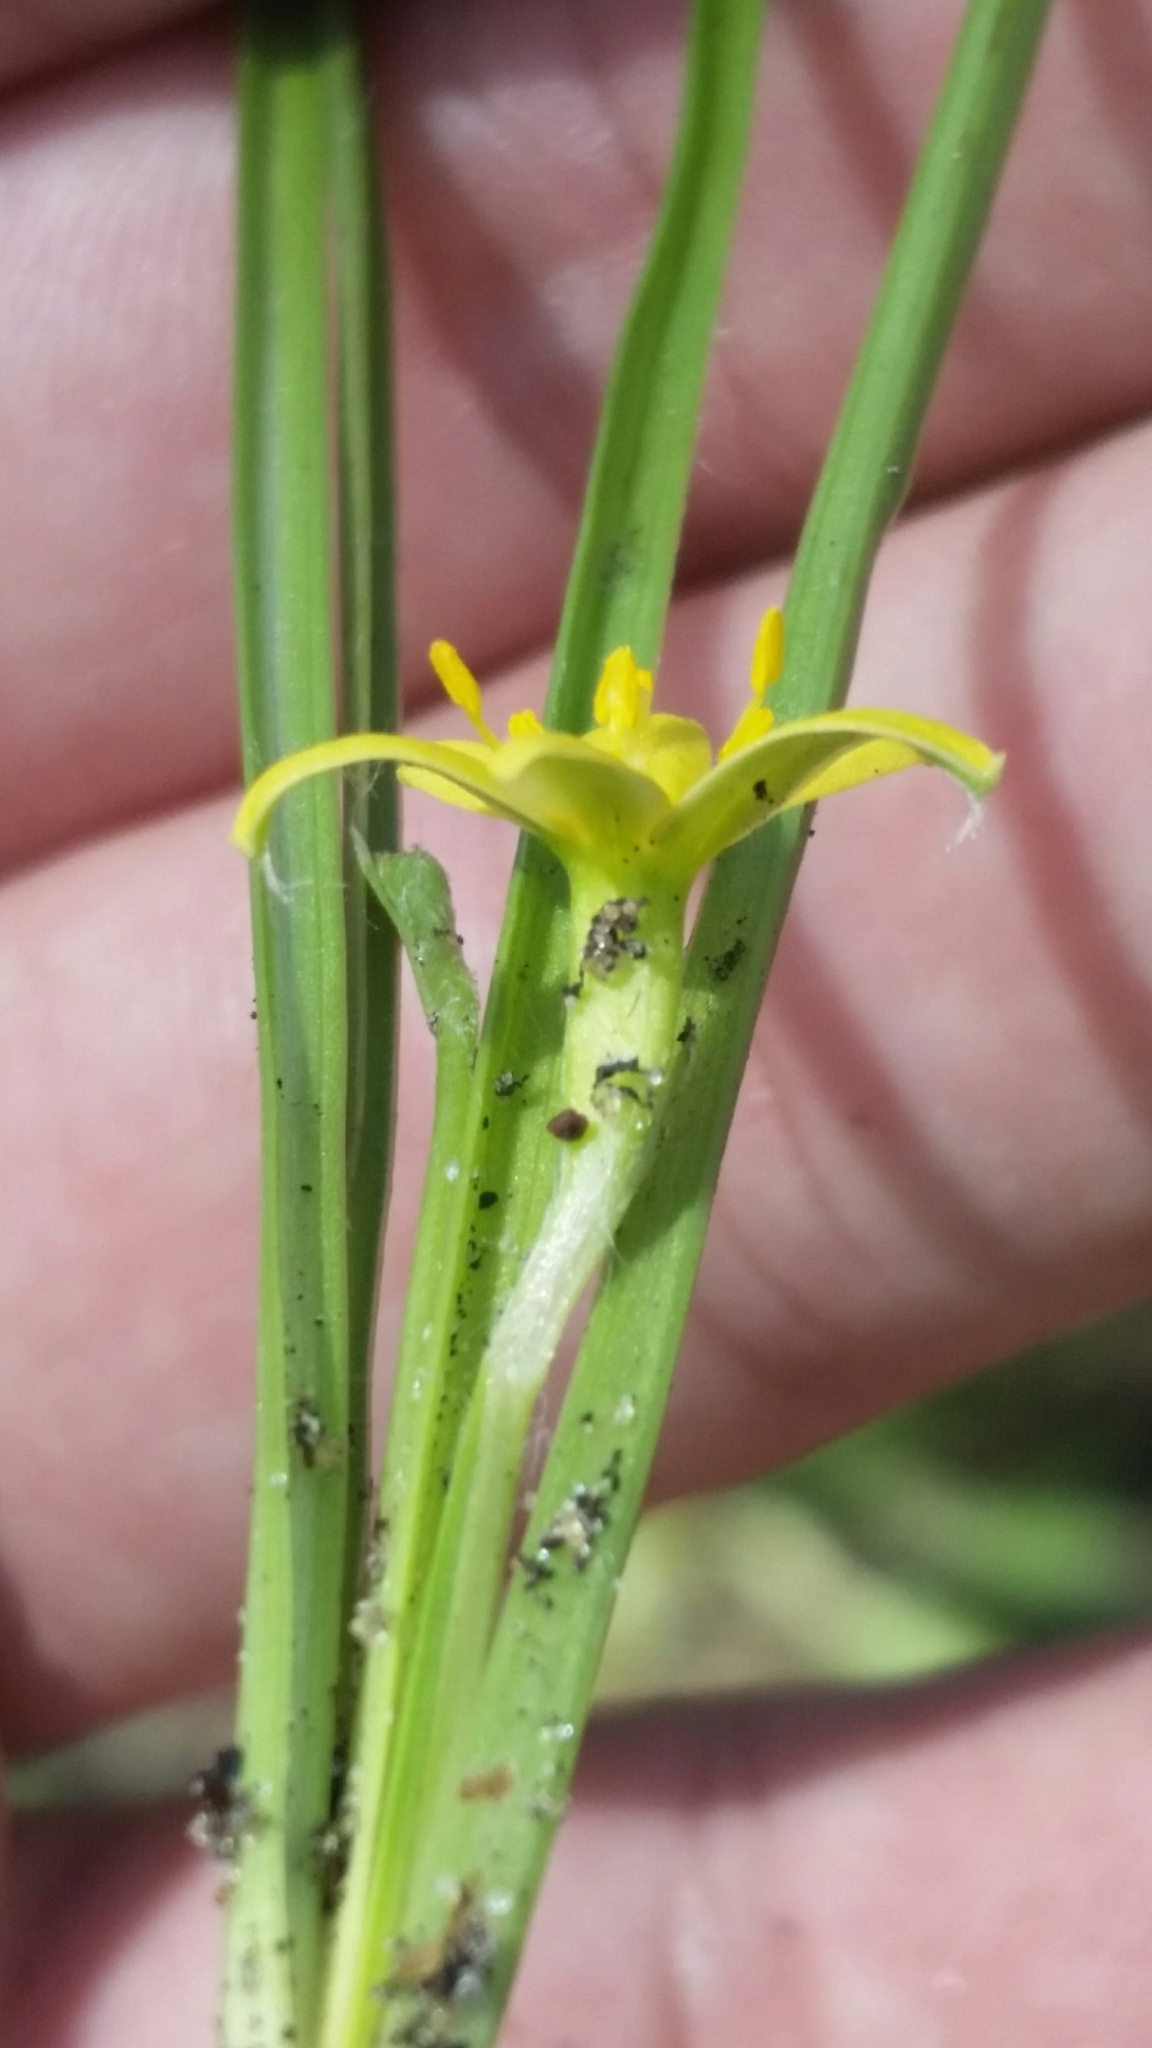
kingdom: Plantae
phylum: Tracheophyta
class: Liliopsida
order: Asparagales
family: Hypoxidaceae
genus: Hypoxis
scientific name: Hypoxis wrightii
